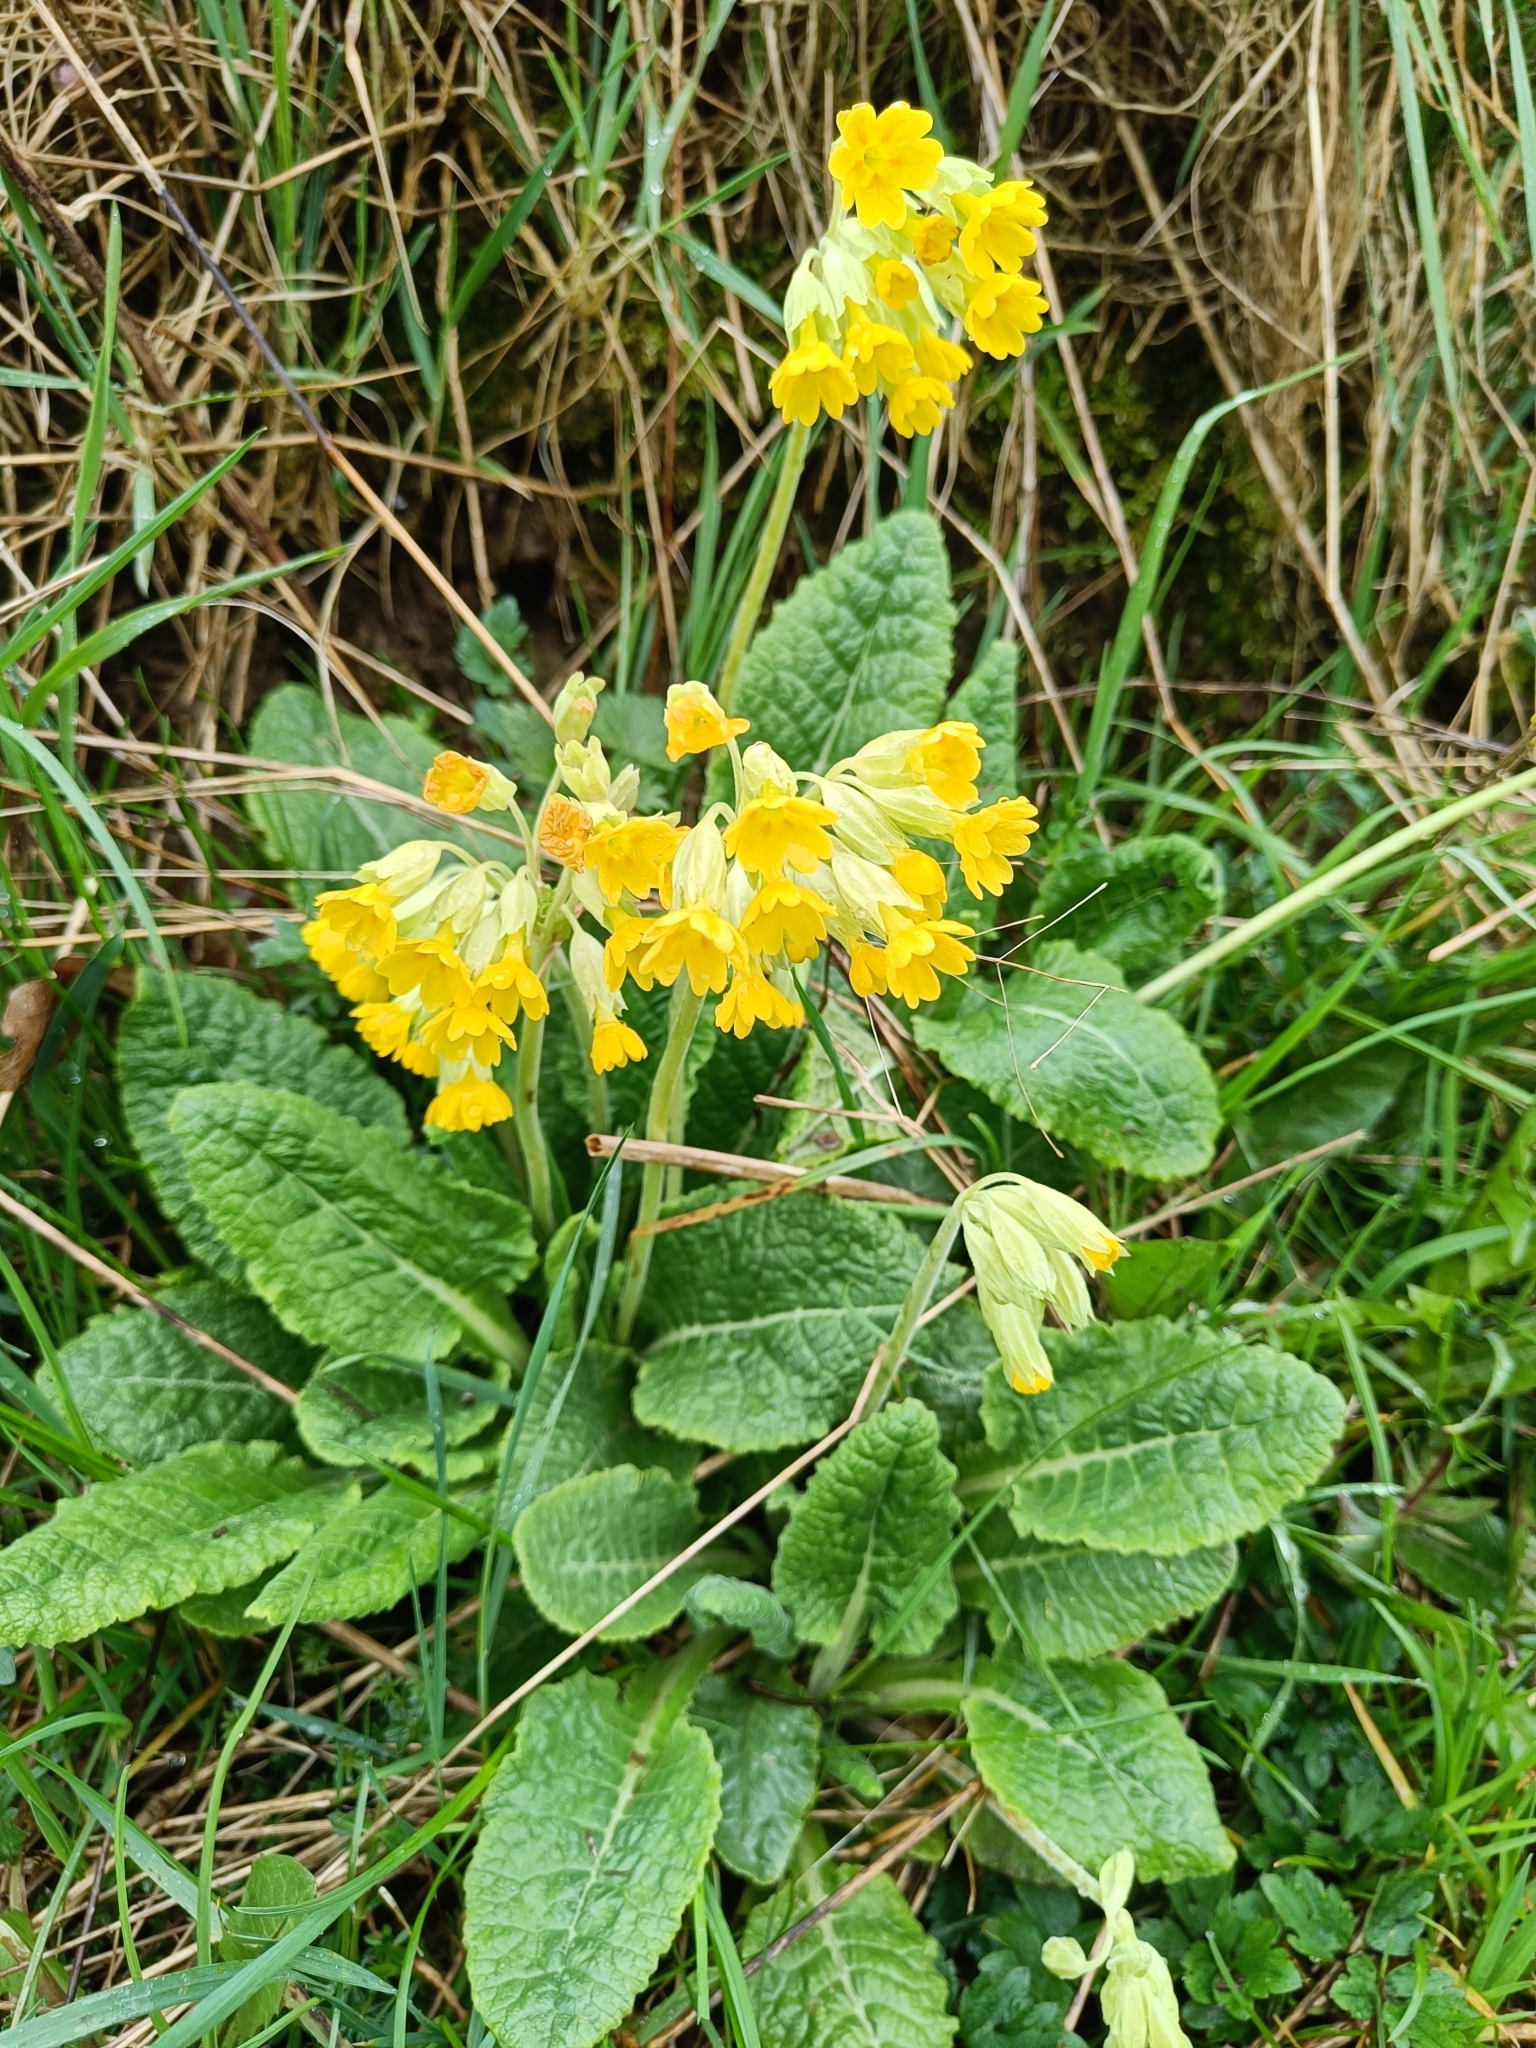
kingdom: Plantae
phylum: Tracheophyta
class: Magnoliopsida
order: Ericales
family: Primulaceae
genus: Primula
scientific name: Primula veris
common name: Cowslip
